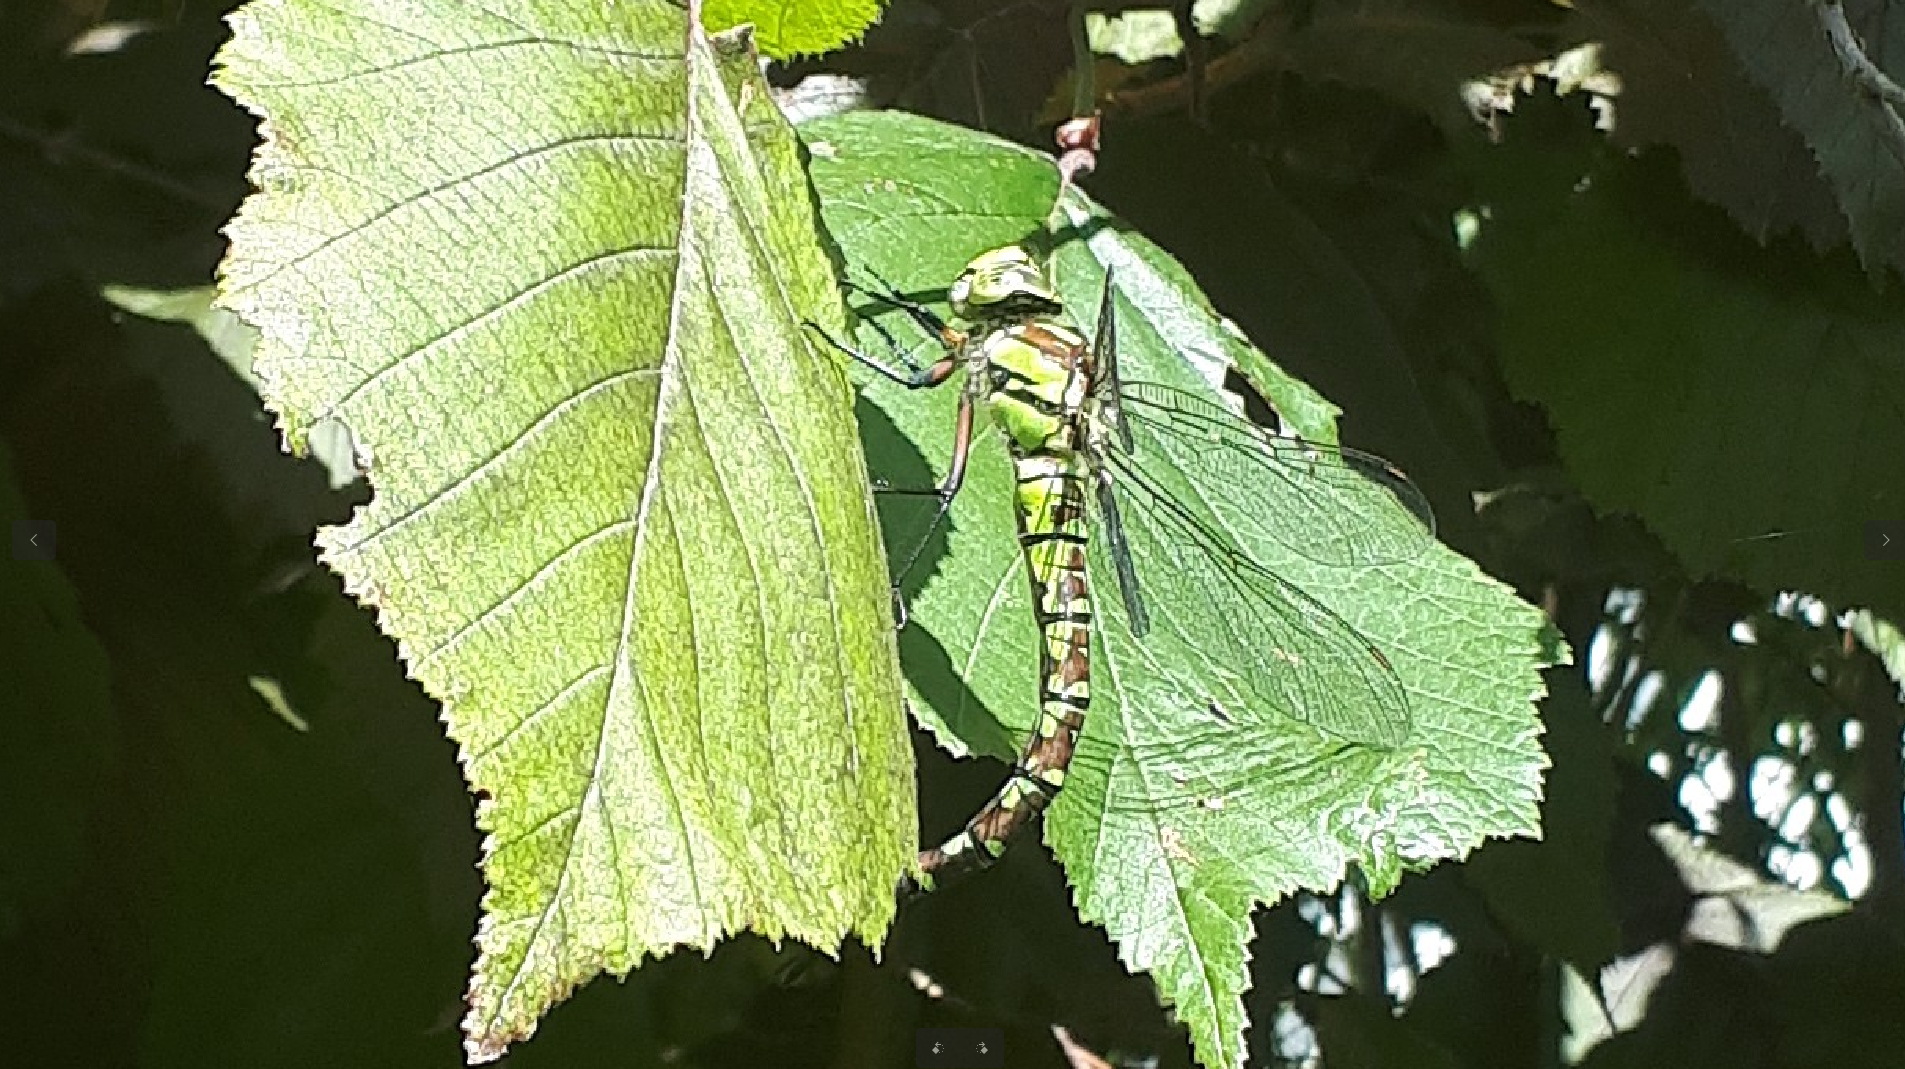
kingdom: Animalia
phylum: Arthropoda
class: Insecta
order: Odonata
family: Aeshnidae
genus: Aeshna
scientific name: Aeshna cyanea
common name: Southern hawker
